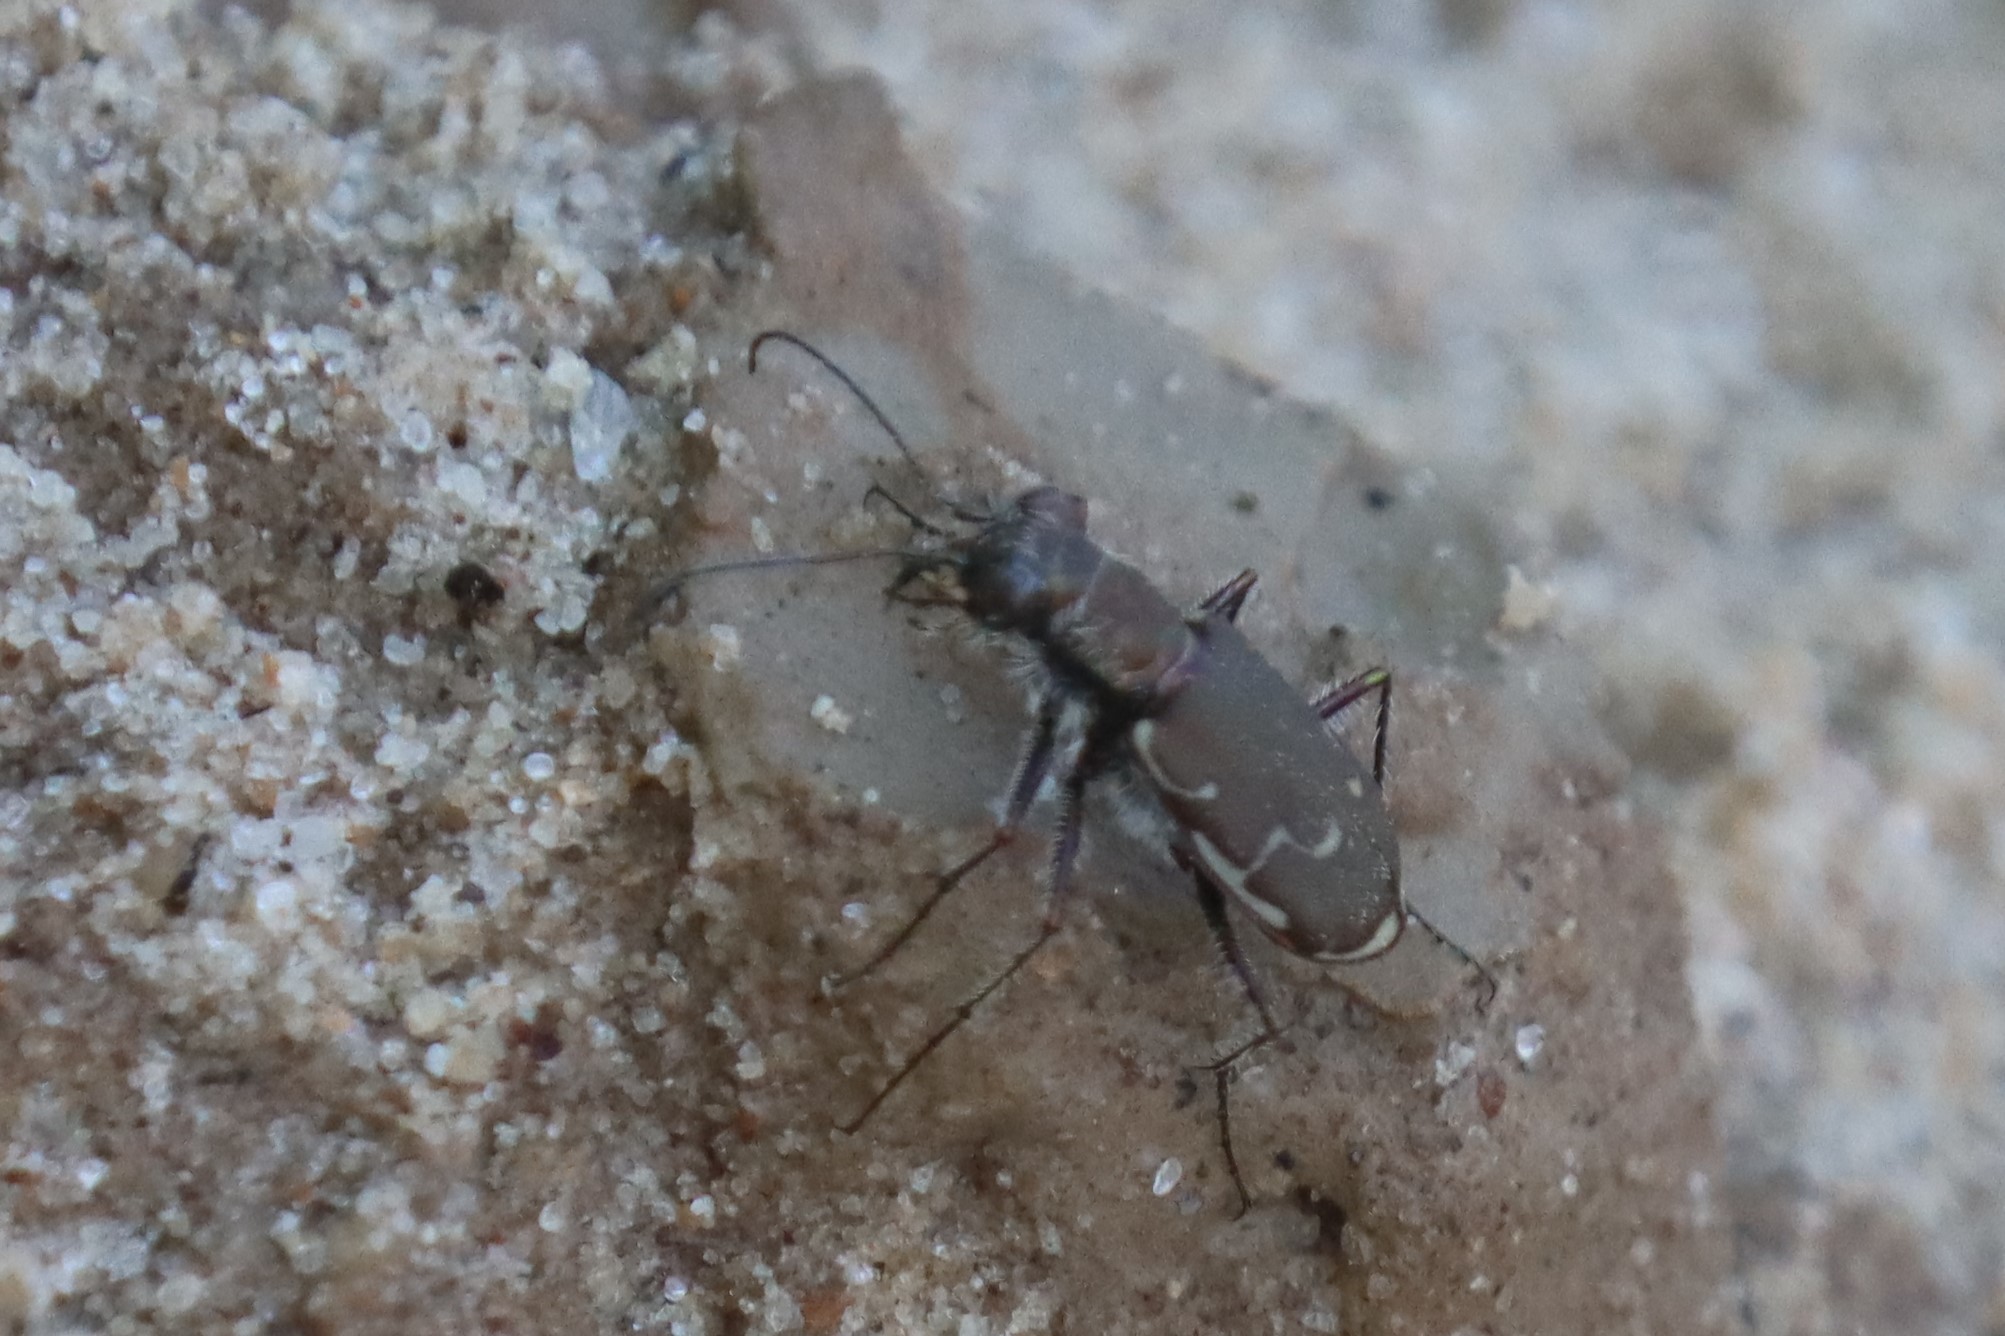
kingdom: Animalia
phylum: Arthropoda
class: Insecta
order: Coleoptera
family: Carabidae
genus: Cicindela
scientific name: Cicindela repanda
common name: Bronzed tiger beetle
